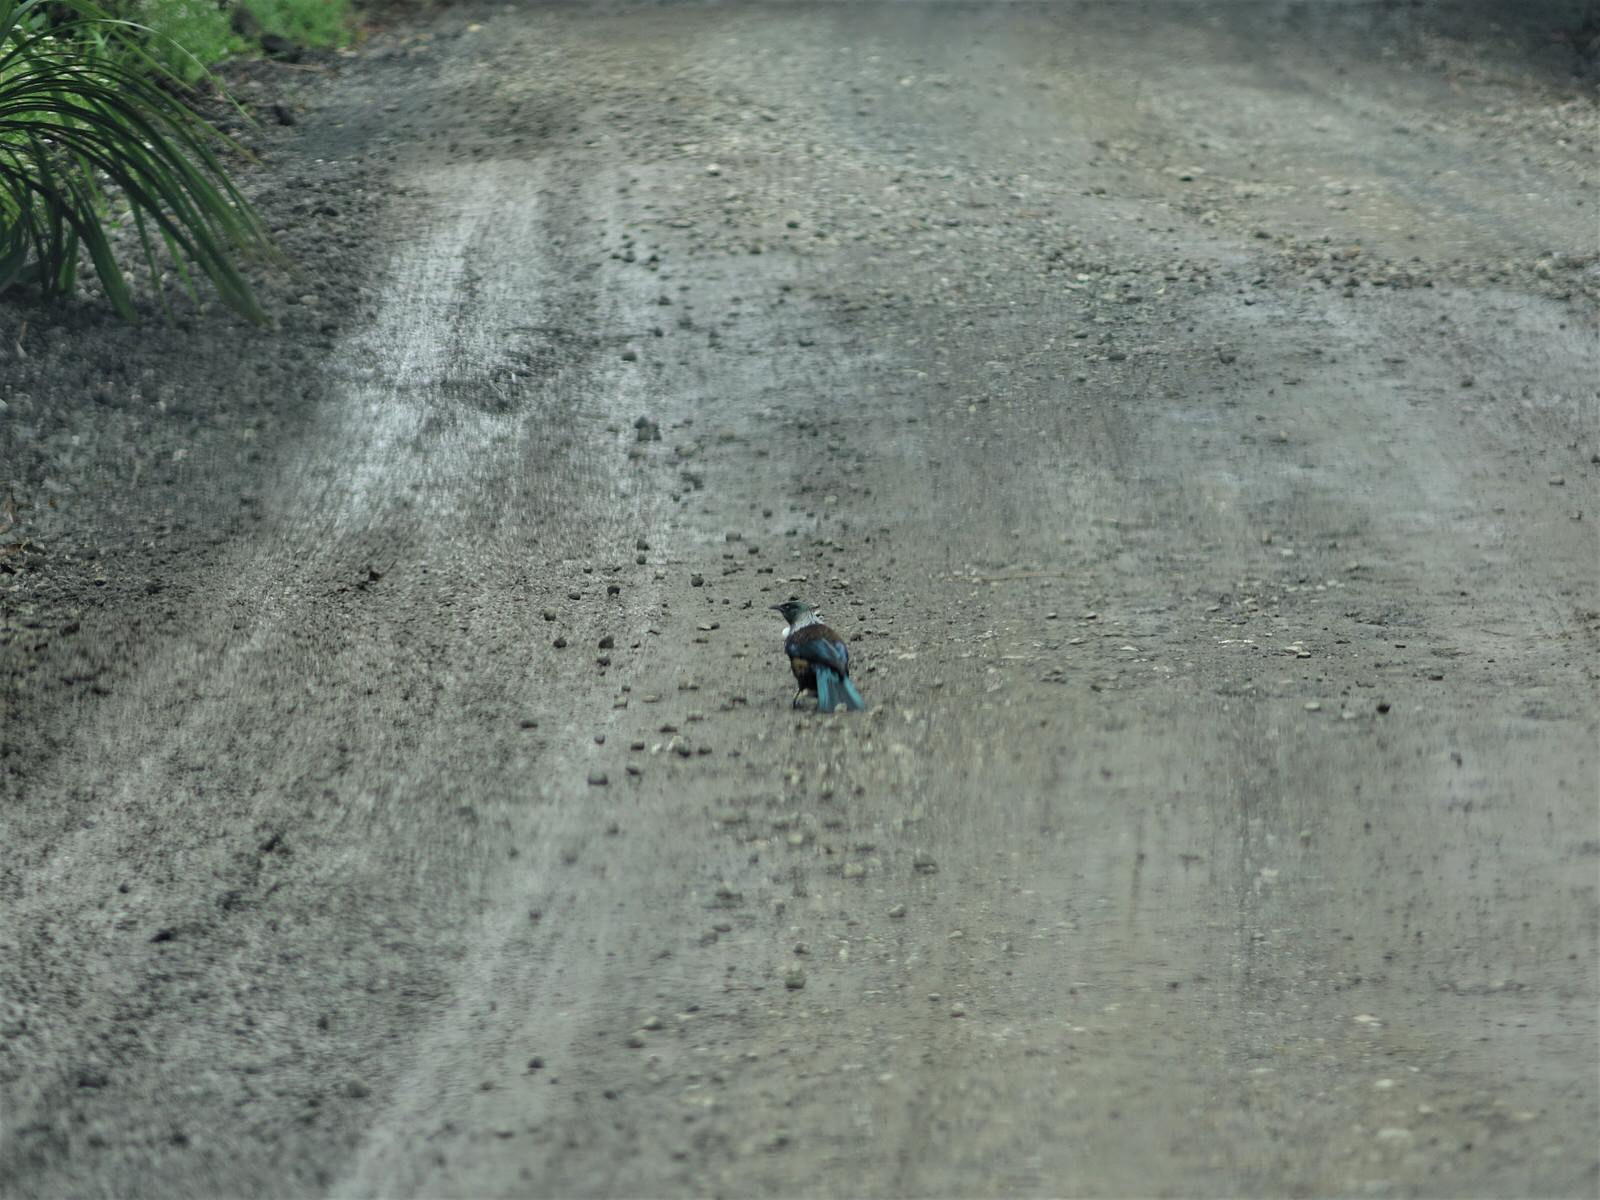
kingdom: Animalia
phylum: Chordata
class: Aves
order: Passeriformes
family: Meliphagidae
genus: Prosthemadera
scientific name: Prosthemadera novaeseelandiae
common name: Tui
